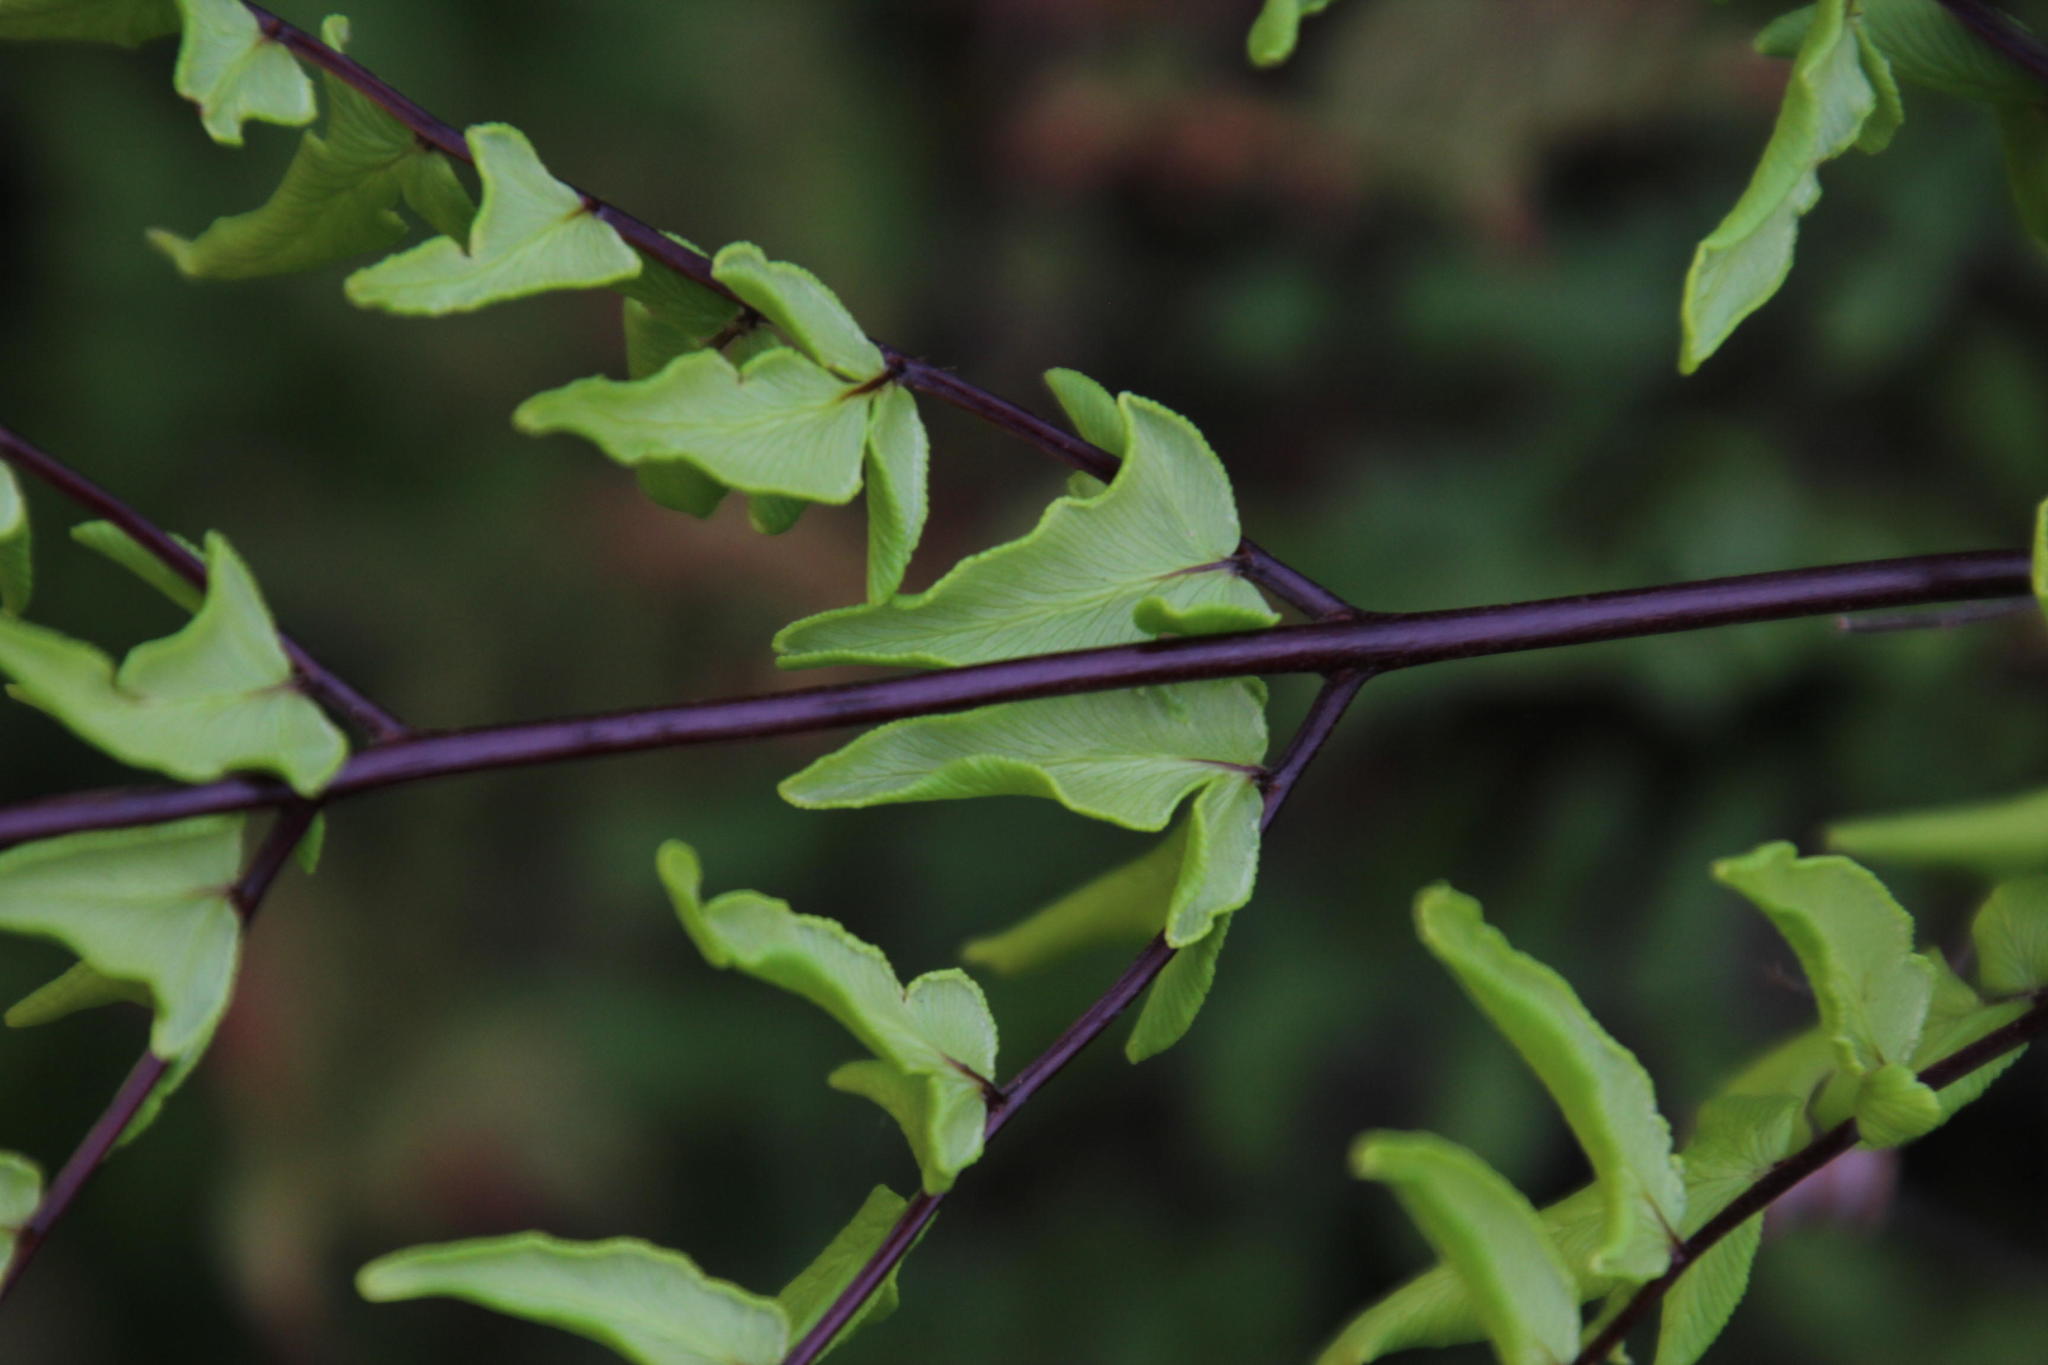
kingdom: Plantae
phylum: Tracheophyta
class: Polypodiopsida
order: Polypodiales
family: Pteridaceae
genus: Pellaea
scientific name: Pellaea calomelanos
